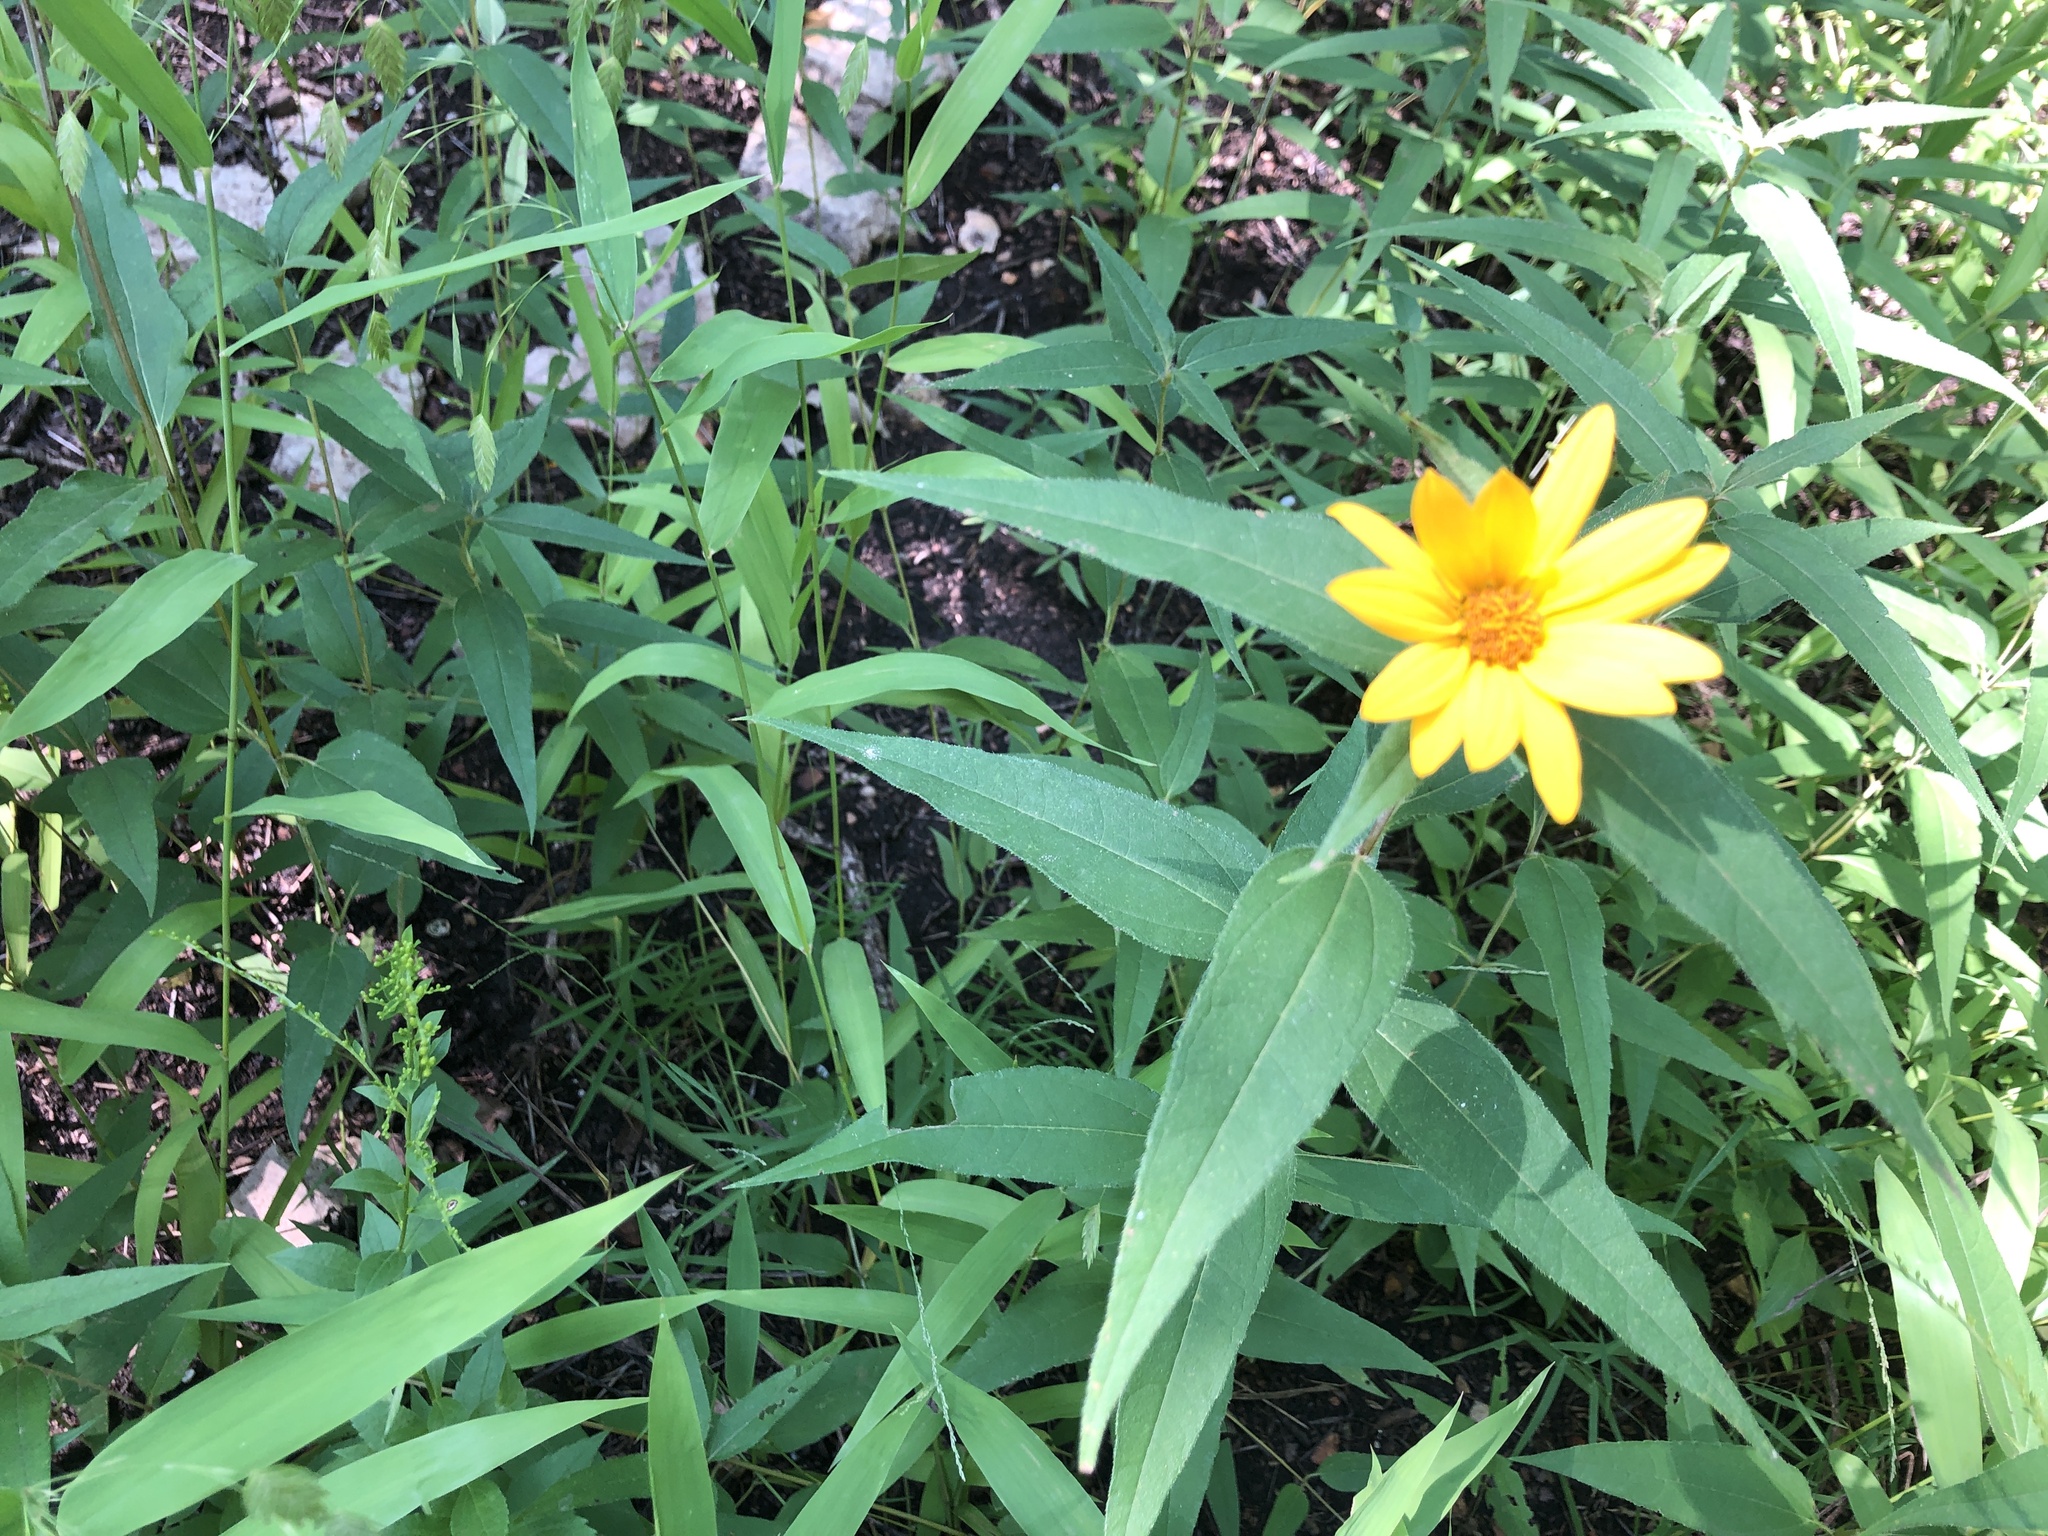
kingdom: Plantae
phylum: Tracheophyta
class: Magnoliopsida
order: Asterales
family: Asteraceae
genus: Helianthus
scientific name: Helianthus hirsutus
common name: Hairy sunflower
